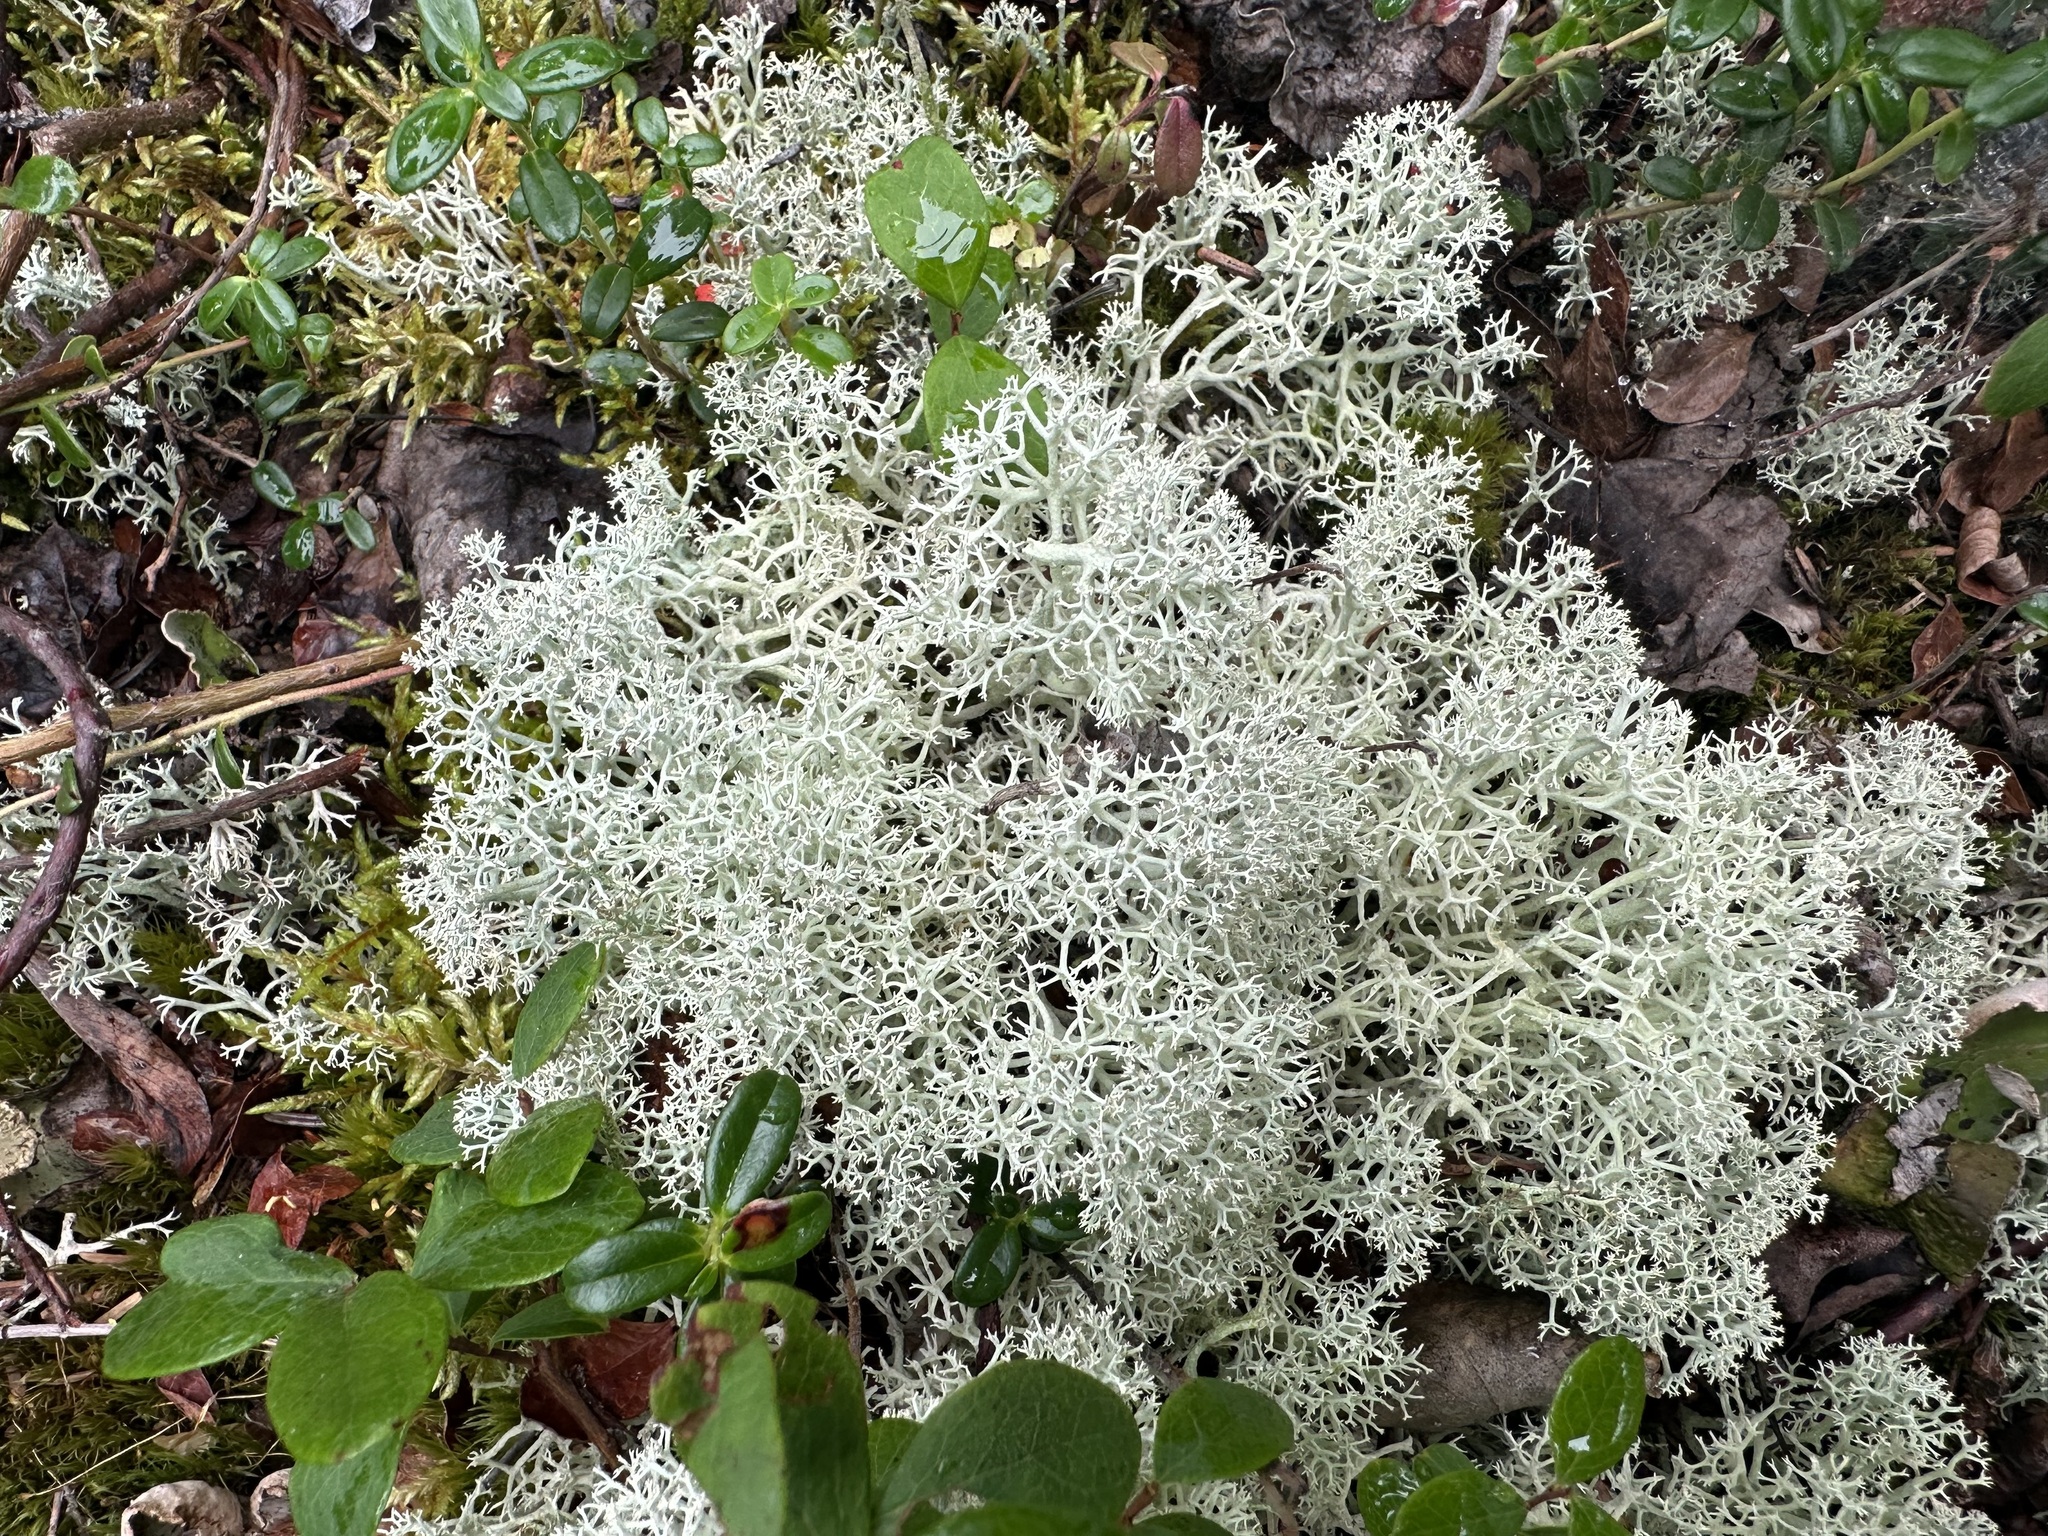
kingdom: Fungi
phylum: Ascomycota
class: Lecanoromycetes
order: Lecanorales
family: Cladoniaceae
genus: Cladonia
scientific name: Cladonia stellaris
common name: Star-tipped reindeer lichen
